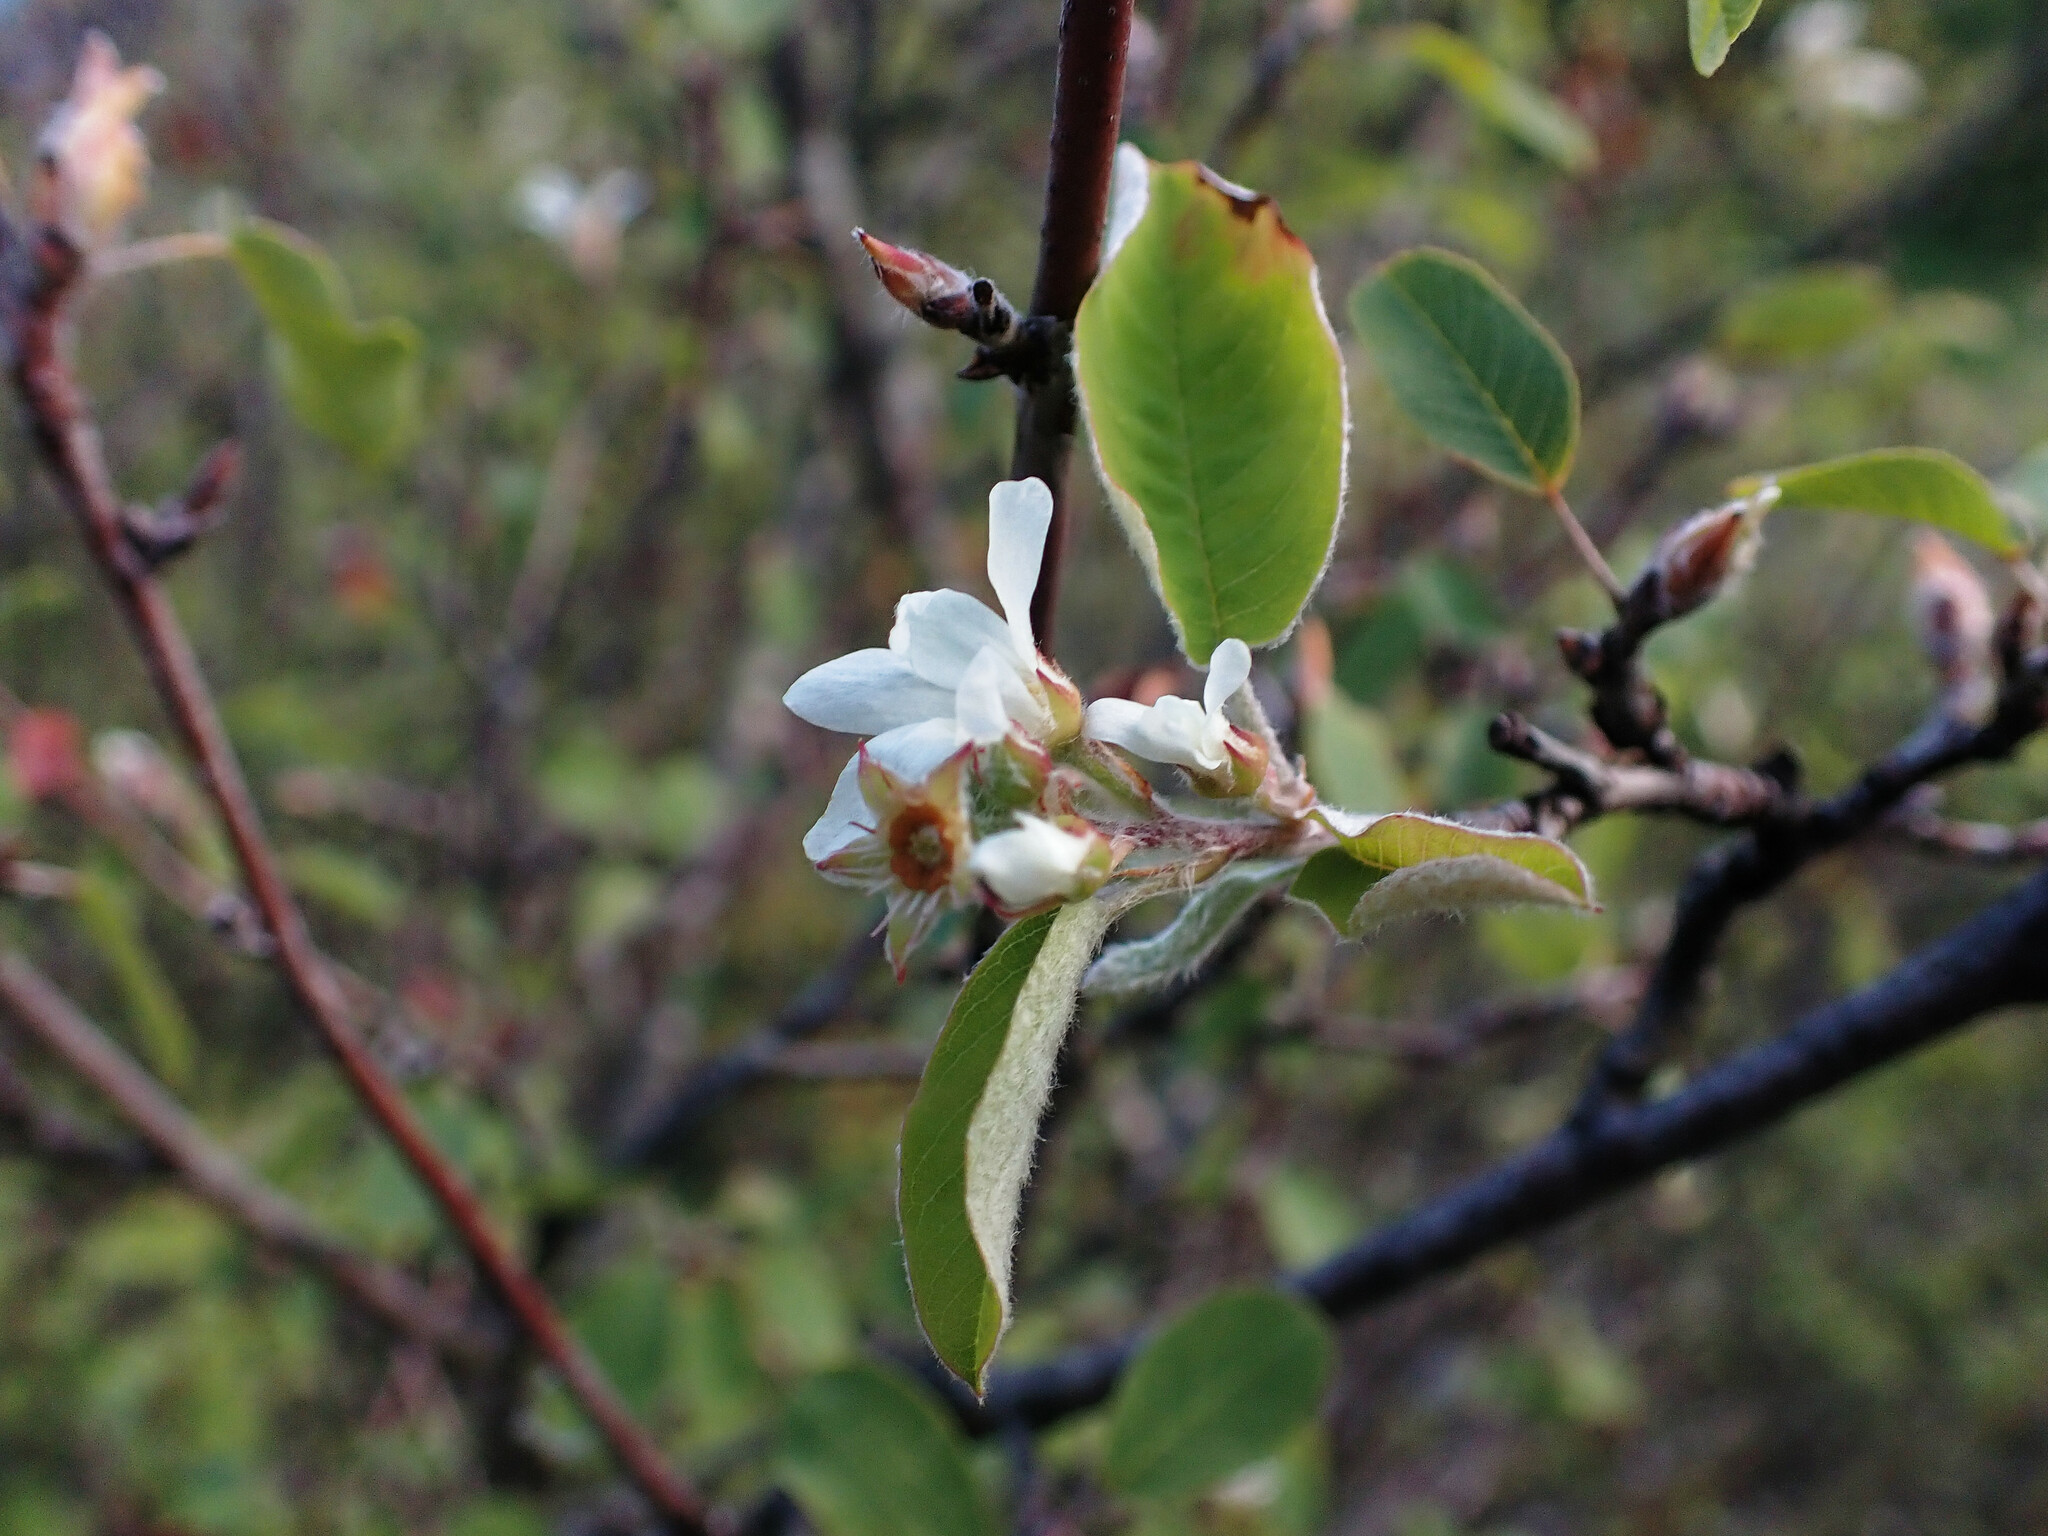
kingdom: Plantae
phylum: Tracheophyta
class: Magnoliopsida
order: Rosales
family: Rosaceae
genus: Amelanchier
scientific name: Amelanchier ovalis
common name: Serviceberry
